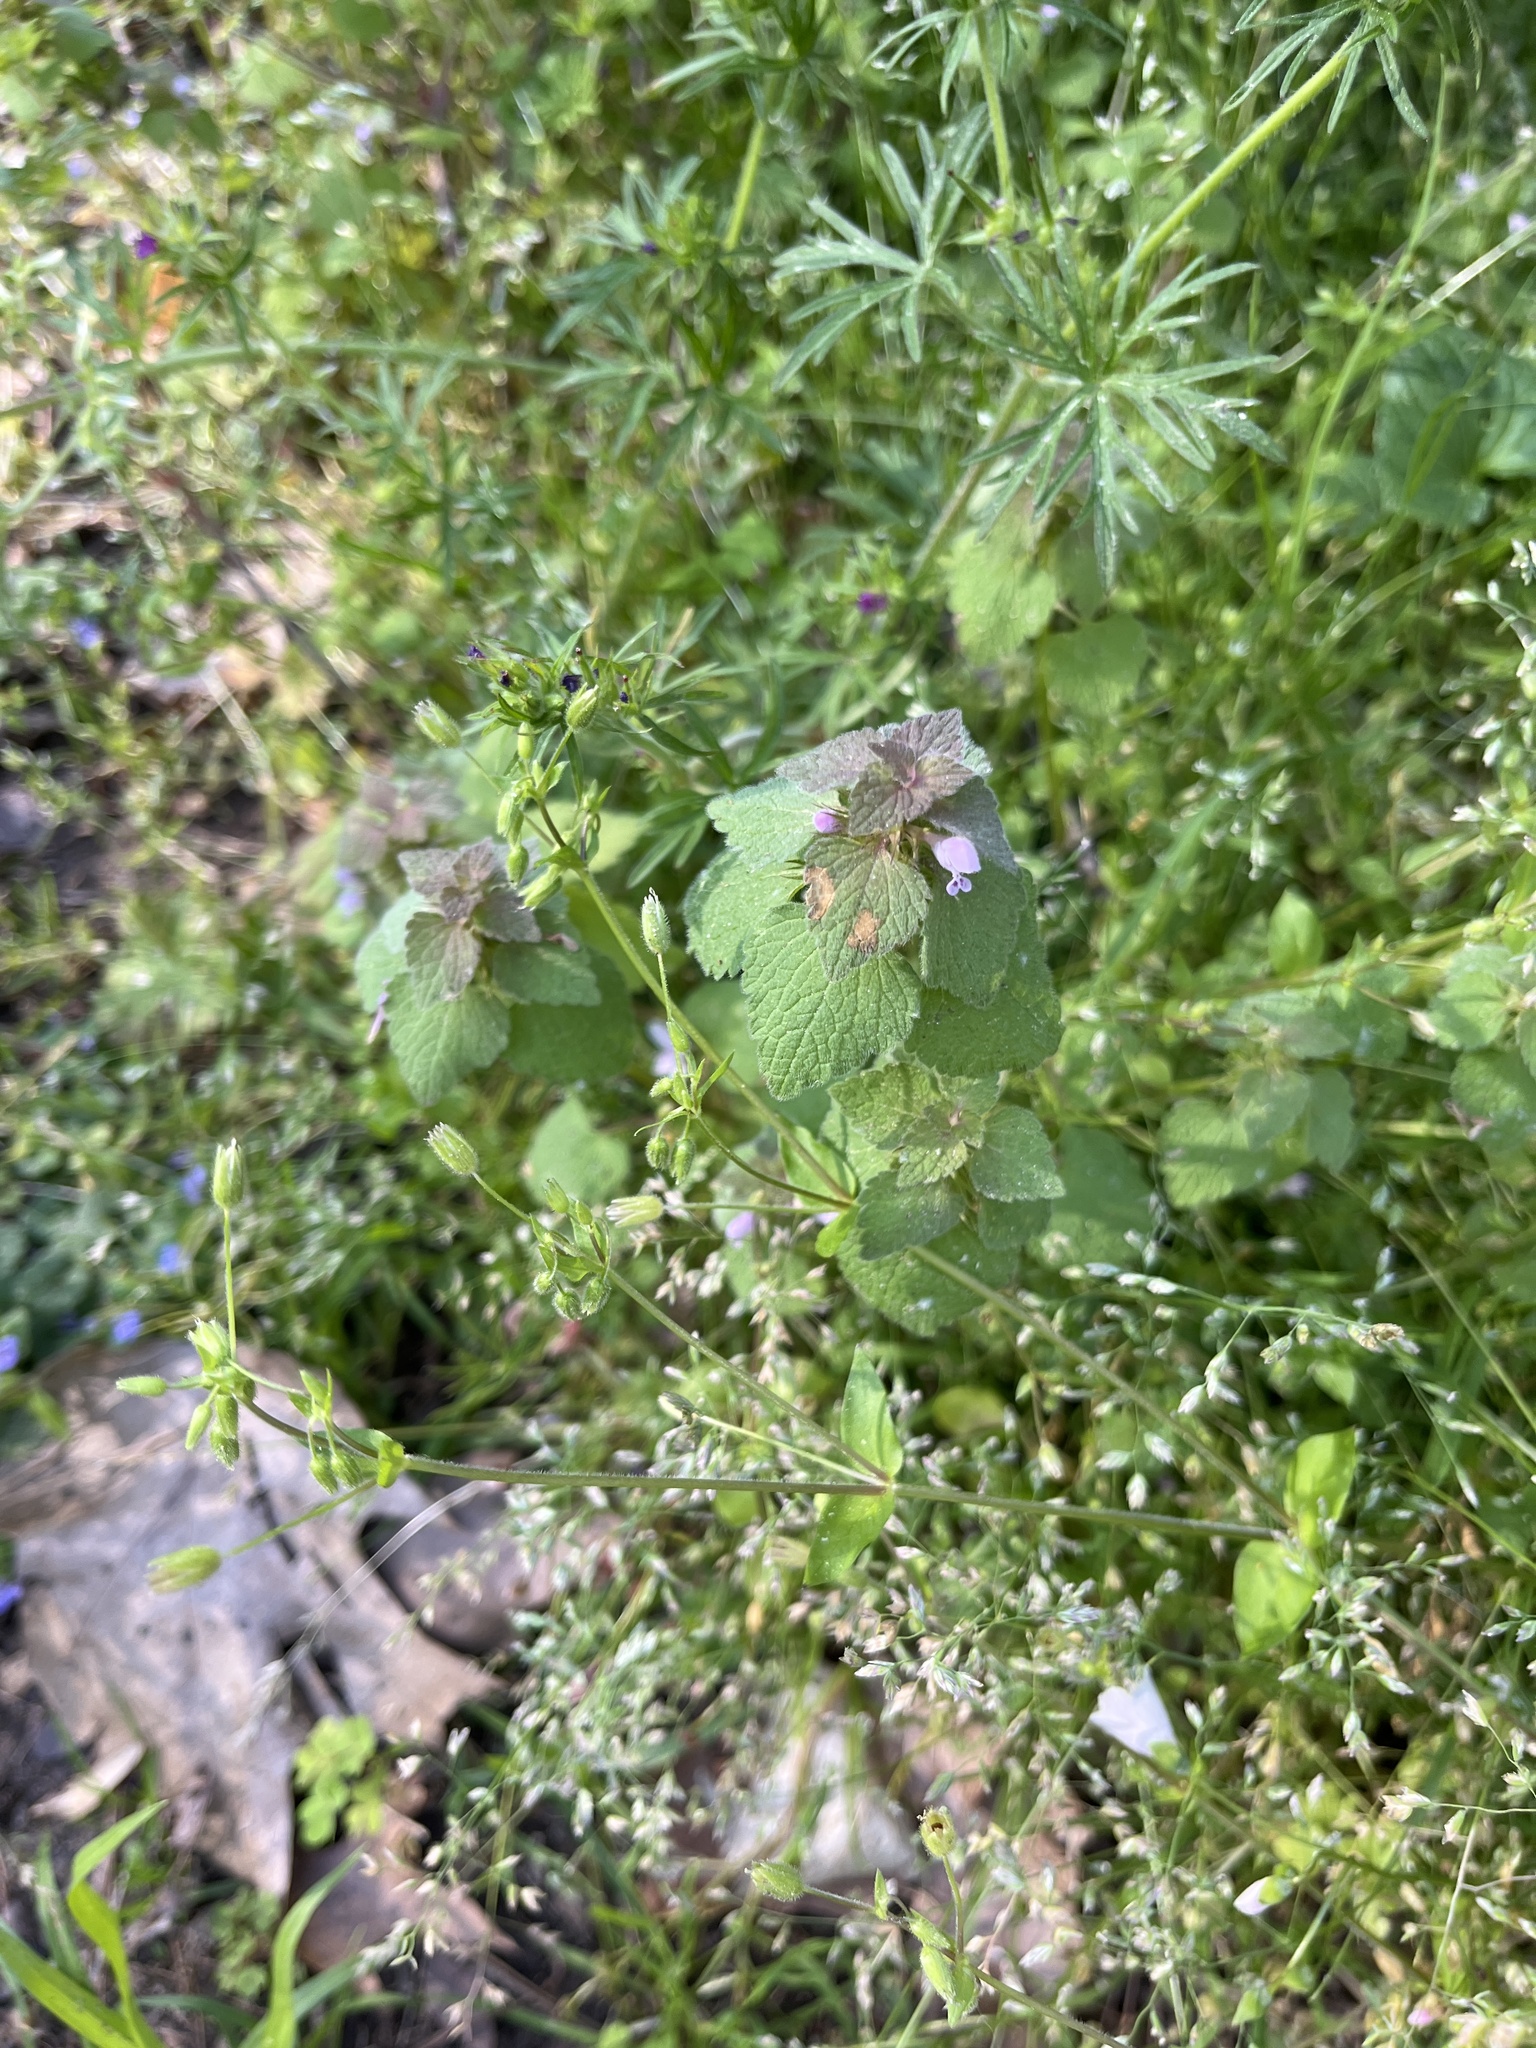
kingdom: Plantae
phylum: Tracheophyta
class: Magnoliopsida
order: Lamiales
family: Lamiaceae
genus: Lamium
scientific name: Lamium purpureum
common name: Red dead-nettle
